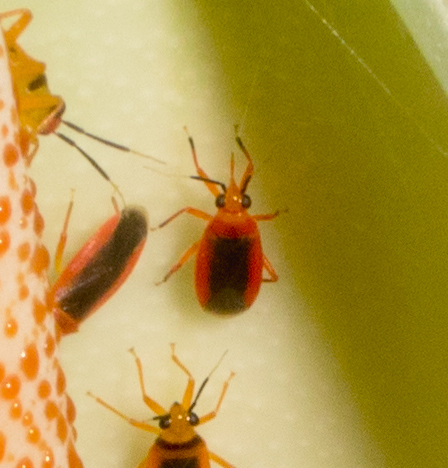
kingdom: Animalia
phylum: Arthropoda
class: Insecta
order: Hemiptera
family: Miridae
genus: Neella
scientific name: Neella floridula
